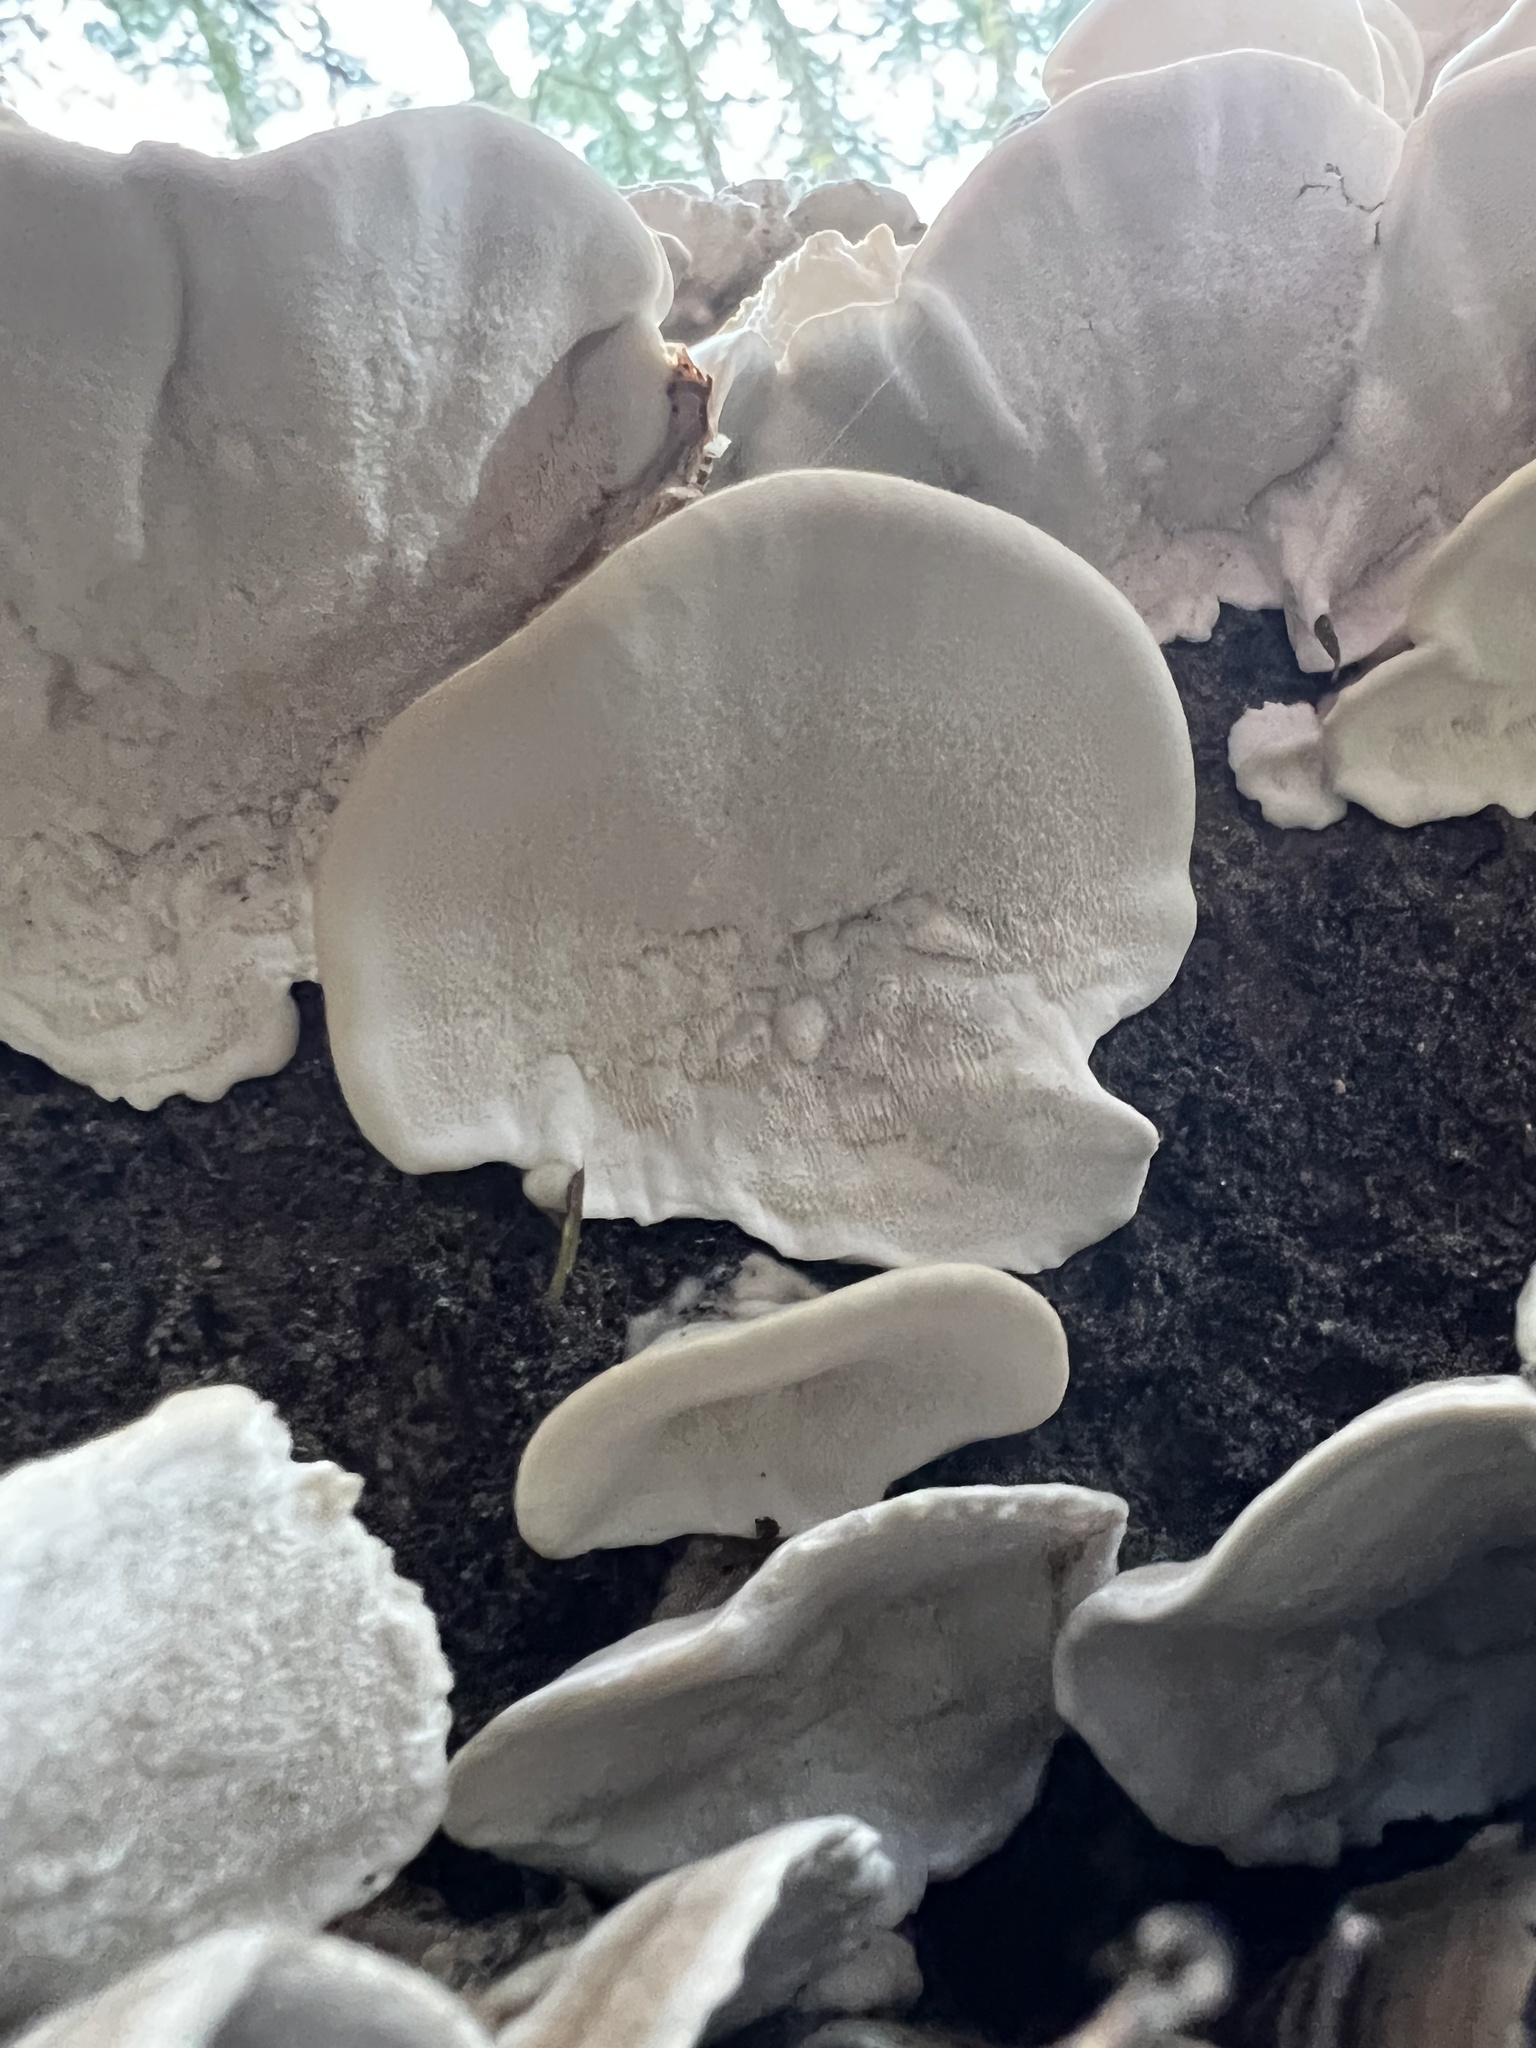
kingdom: Fungi
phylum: Basidiomycota
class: Agaricomycetes
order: Polyporales
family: Polyporaceae
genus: Trametes
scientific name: Trametes versicolor
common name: Turkeytail
